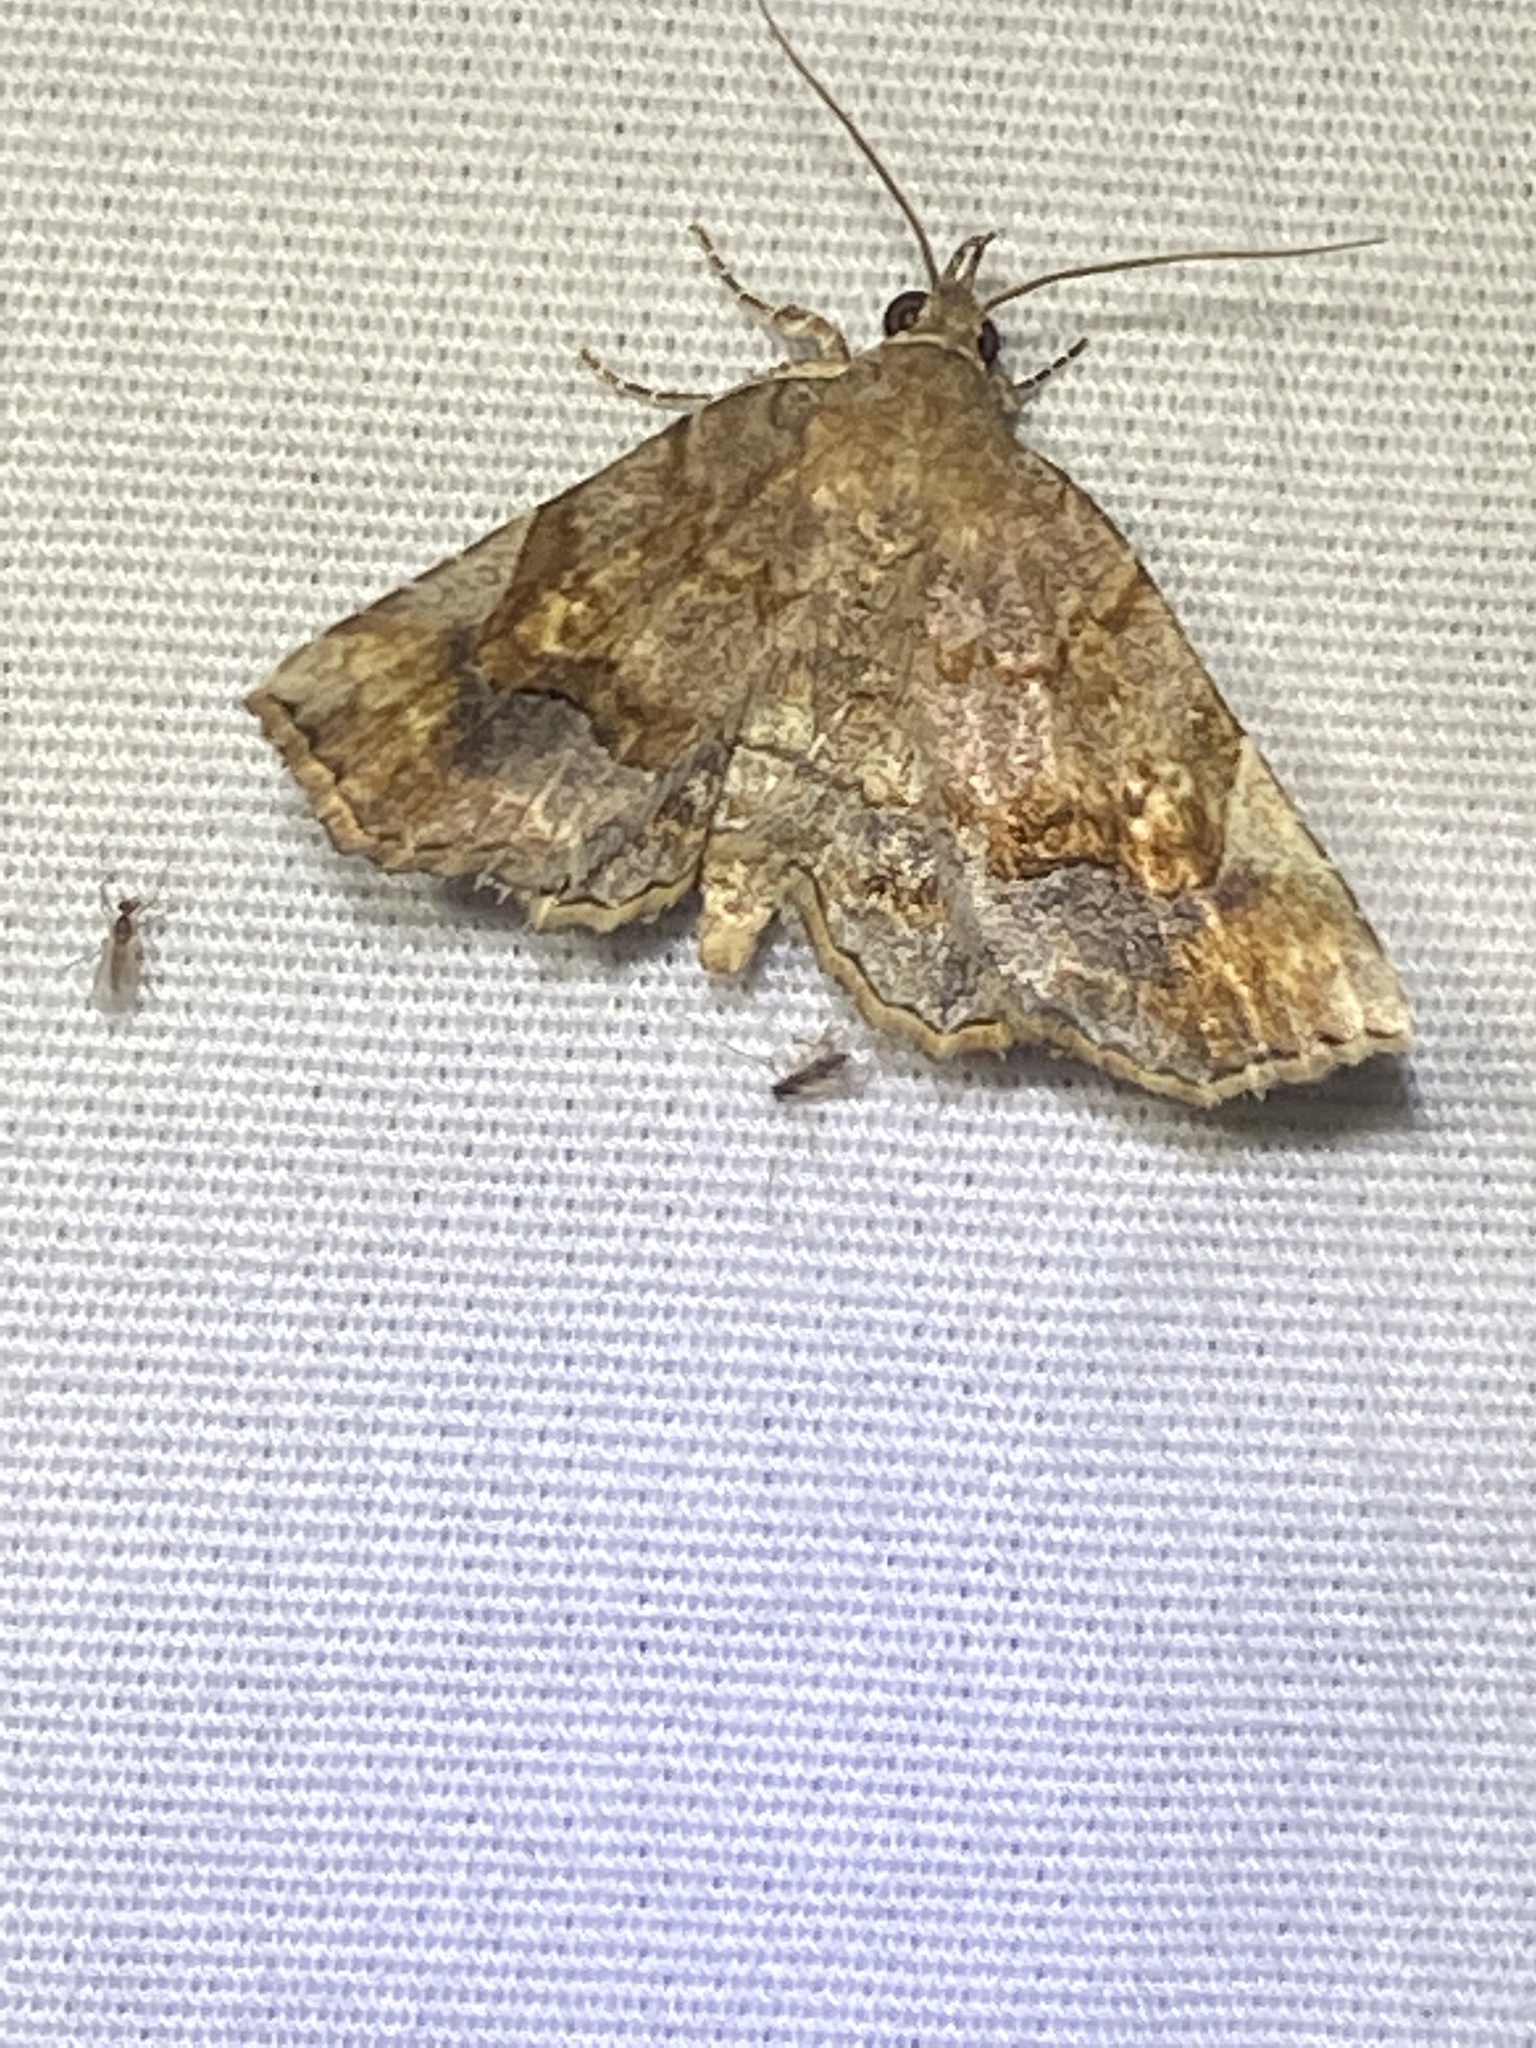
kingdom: Animalia
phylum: Arthropoda
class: Insecta
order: Lepidoptera
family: Erebidae
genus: Pangrapta
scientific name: Pangrapta decoralis
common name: Decorated owlet
